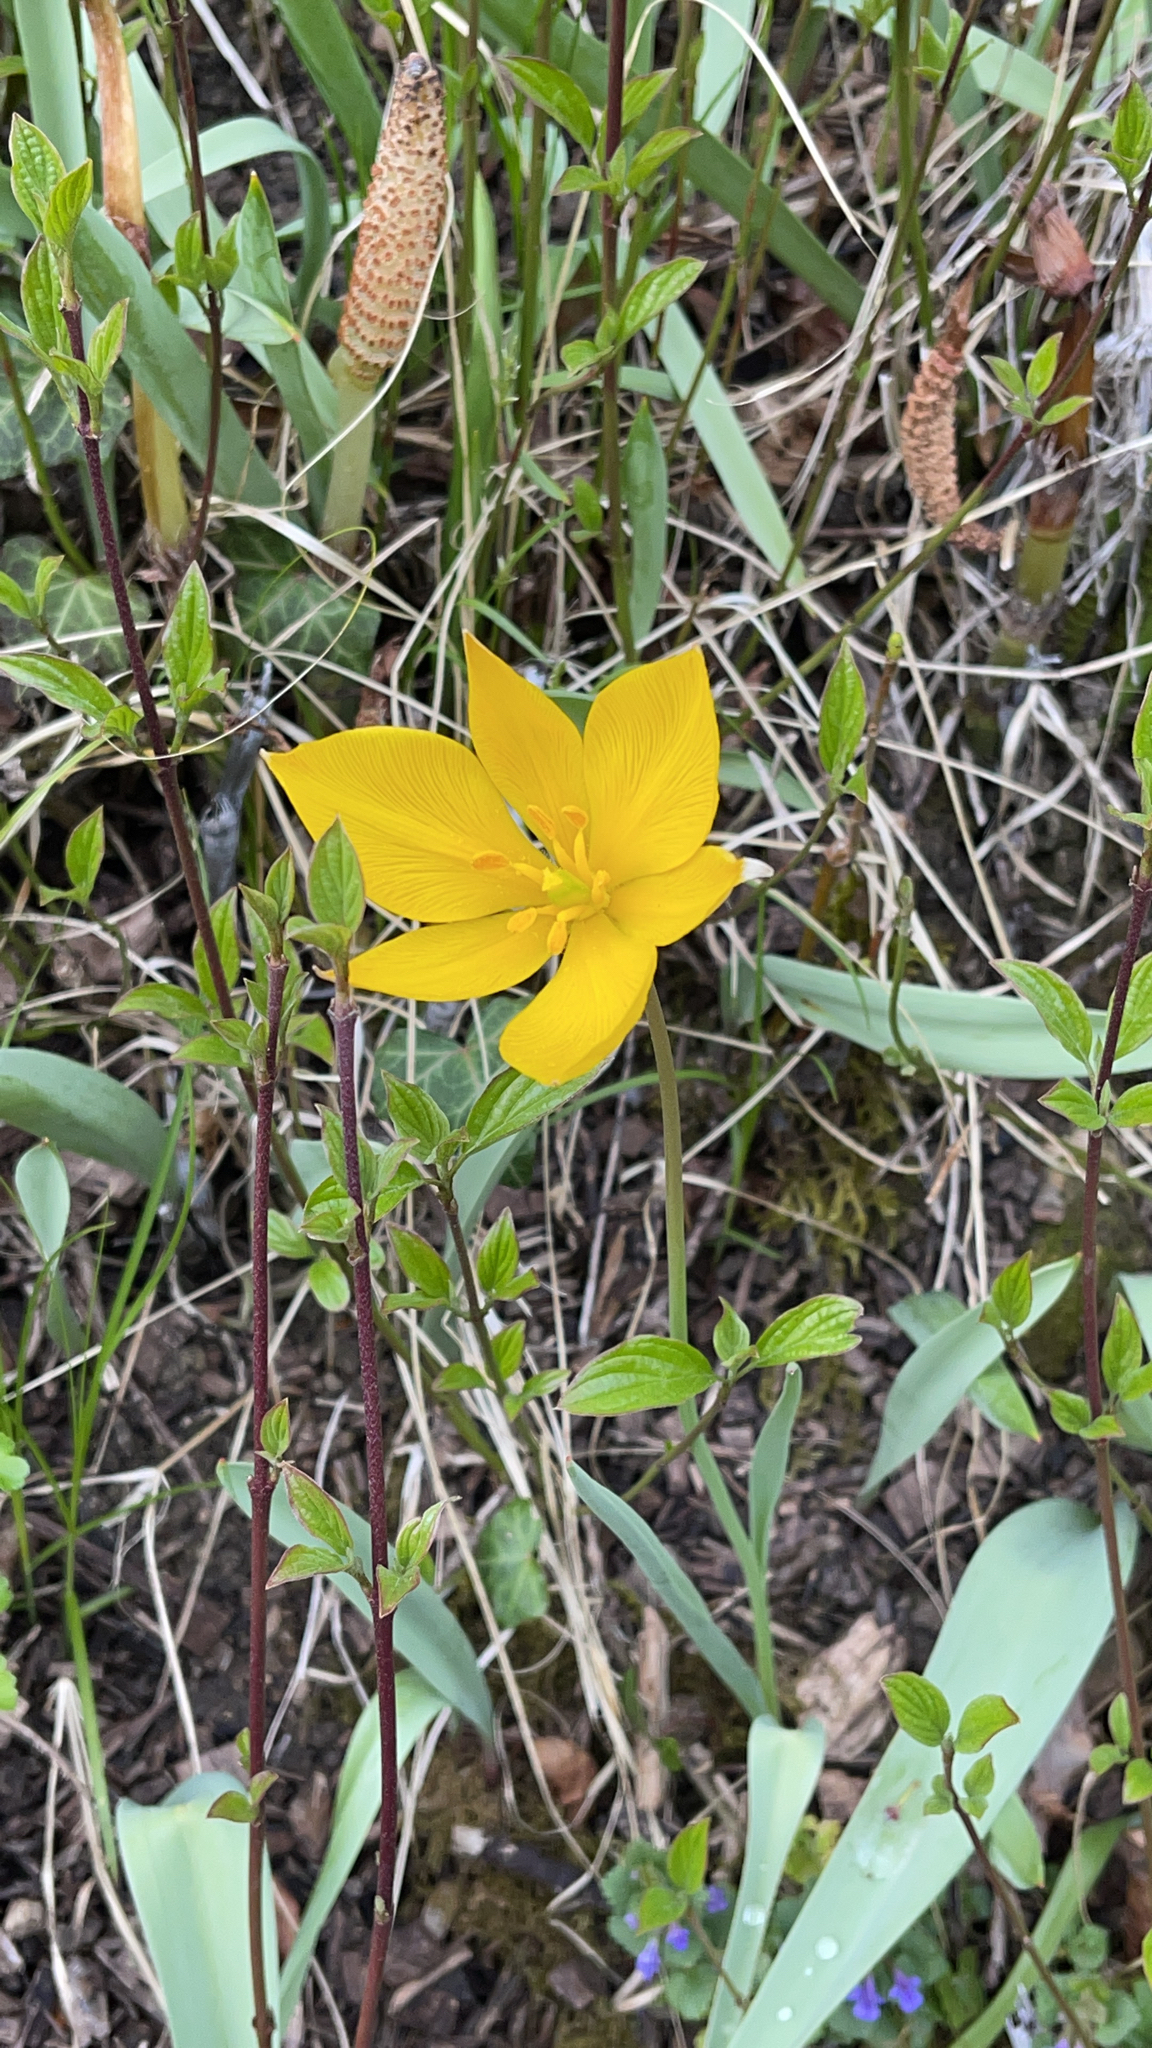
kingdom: Plantae
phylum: Tracheophyta
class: Liliopsida
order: Liliales
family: Liliaceae
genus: Tulipa
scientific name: Tulipa sylvestris
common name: Wild tulip
